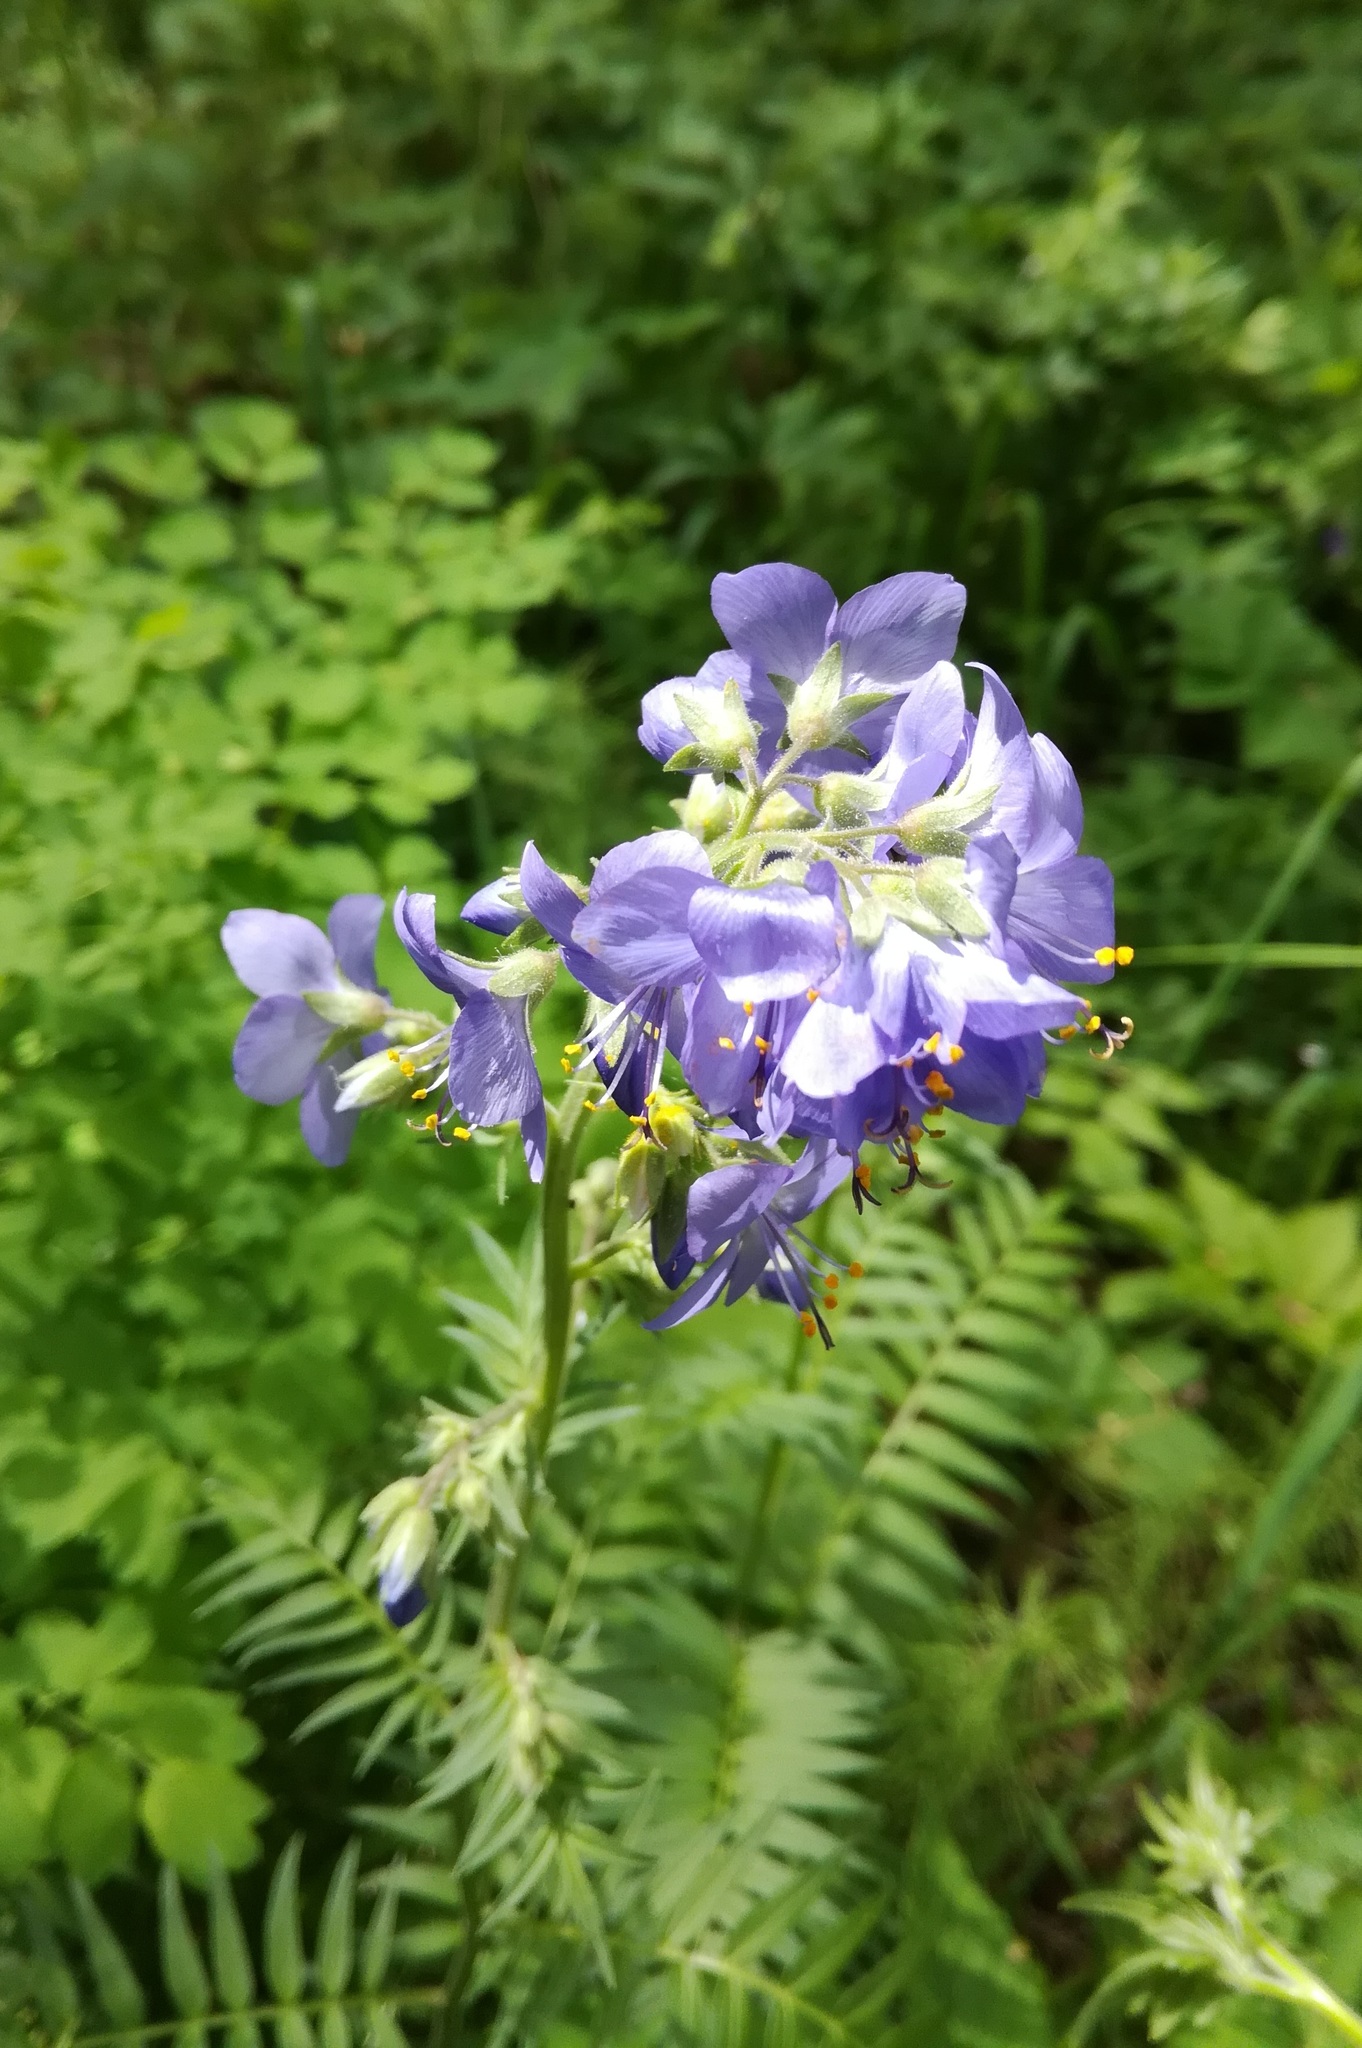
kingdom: Plantae
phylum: Tracheophyta
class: Magnoliopsida
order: Ericales
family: Polemoniaceae
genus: Polemonium
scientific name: Polemonium caeruleum
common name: Jacob's-ladder
